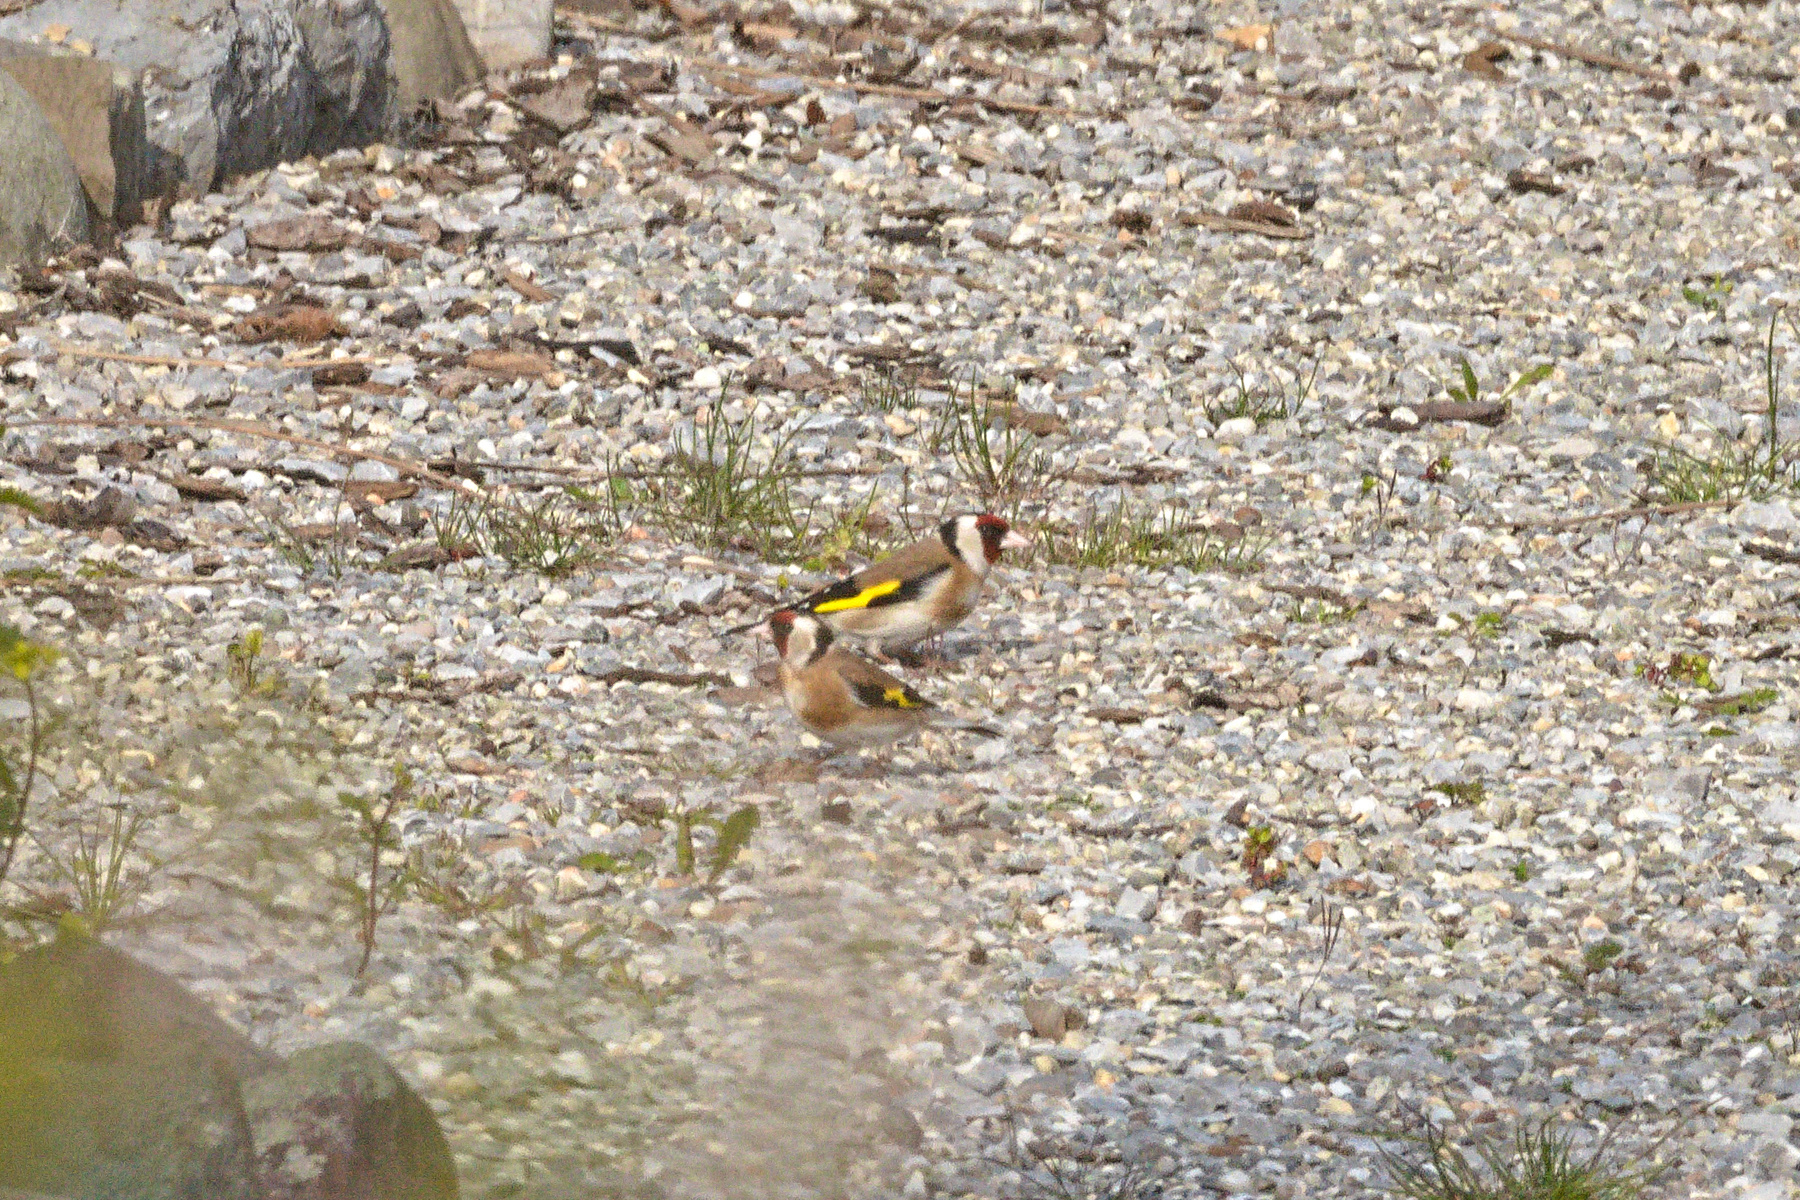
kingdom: Animalia
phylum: Chordata
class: Aves
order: Passeriformes
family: Fringillidae
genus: Carduelis
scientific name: Carduelis carduelis
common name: European goldfinch
